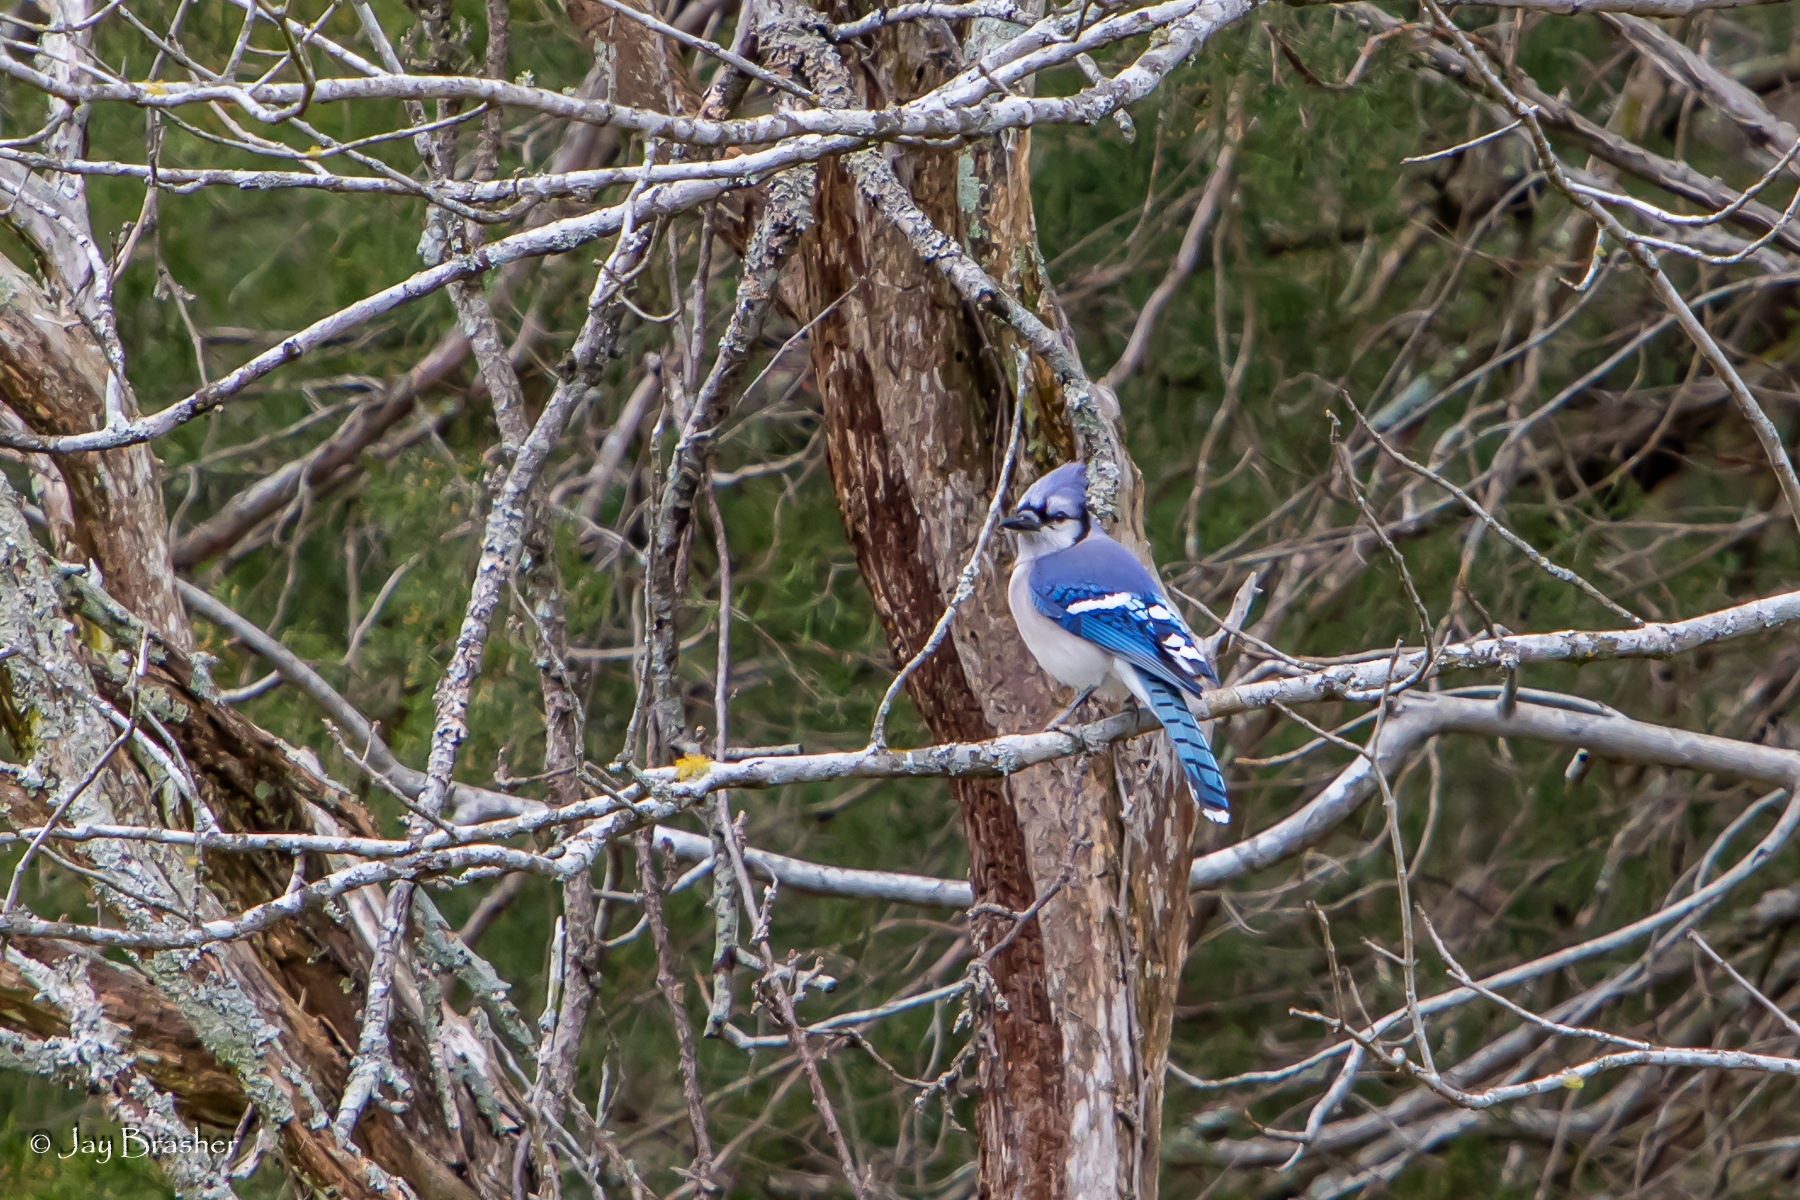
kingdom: Animalia
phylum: Chordata
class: Aves
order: Passeriformes
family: Corvidae
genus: Cyanocitta
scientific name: Cyanocitta cristata
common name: Blue jay
